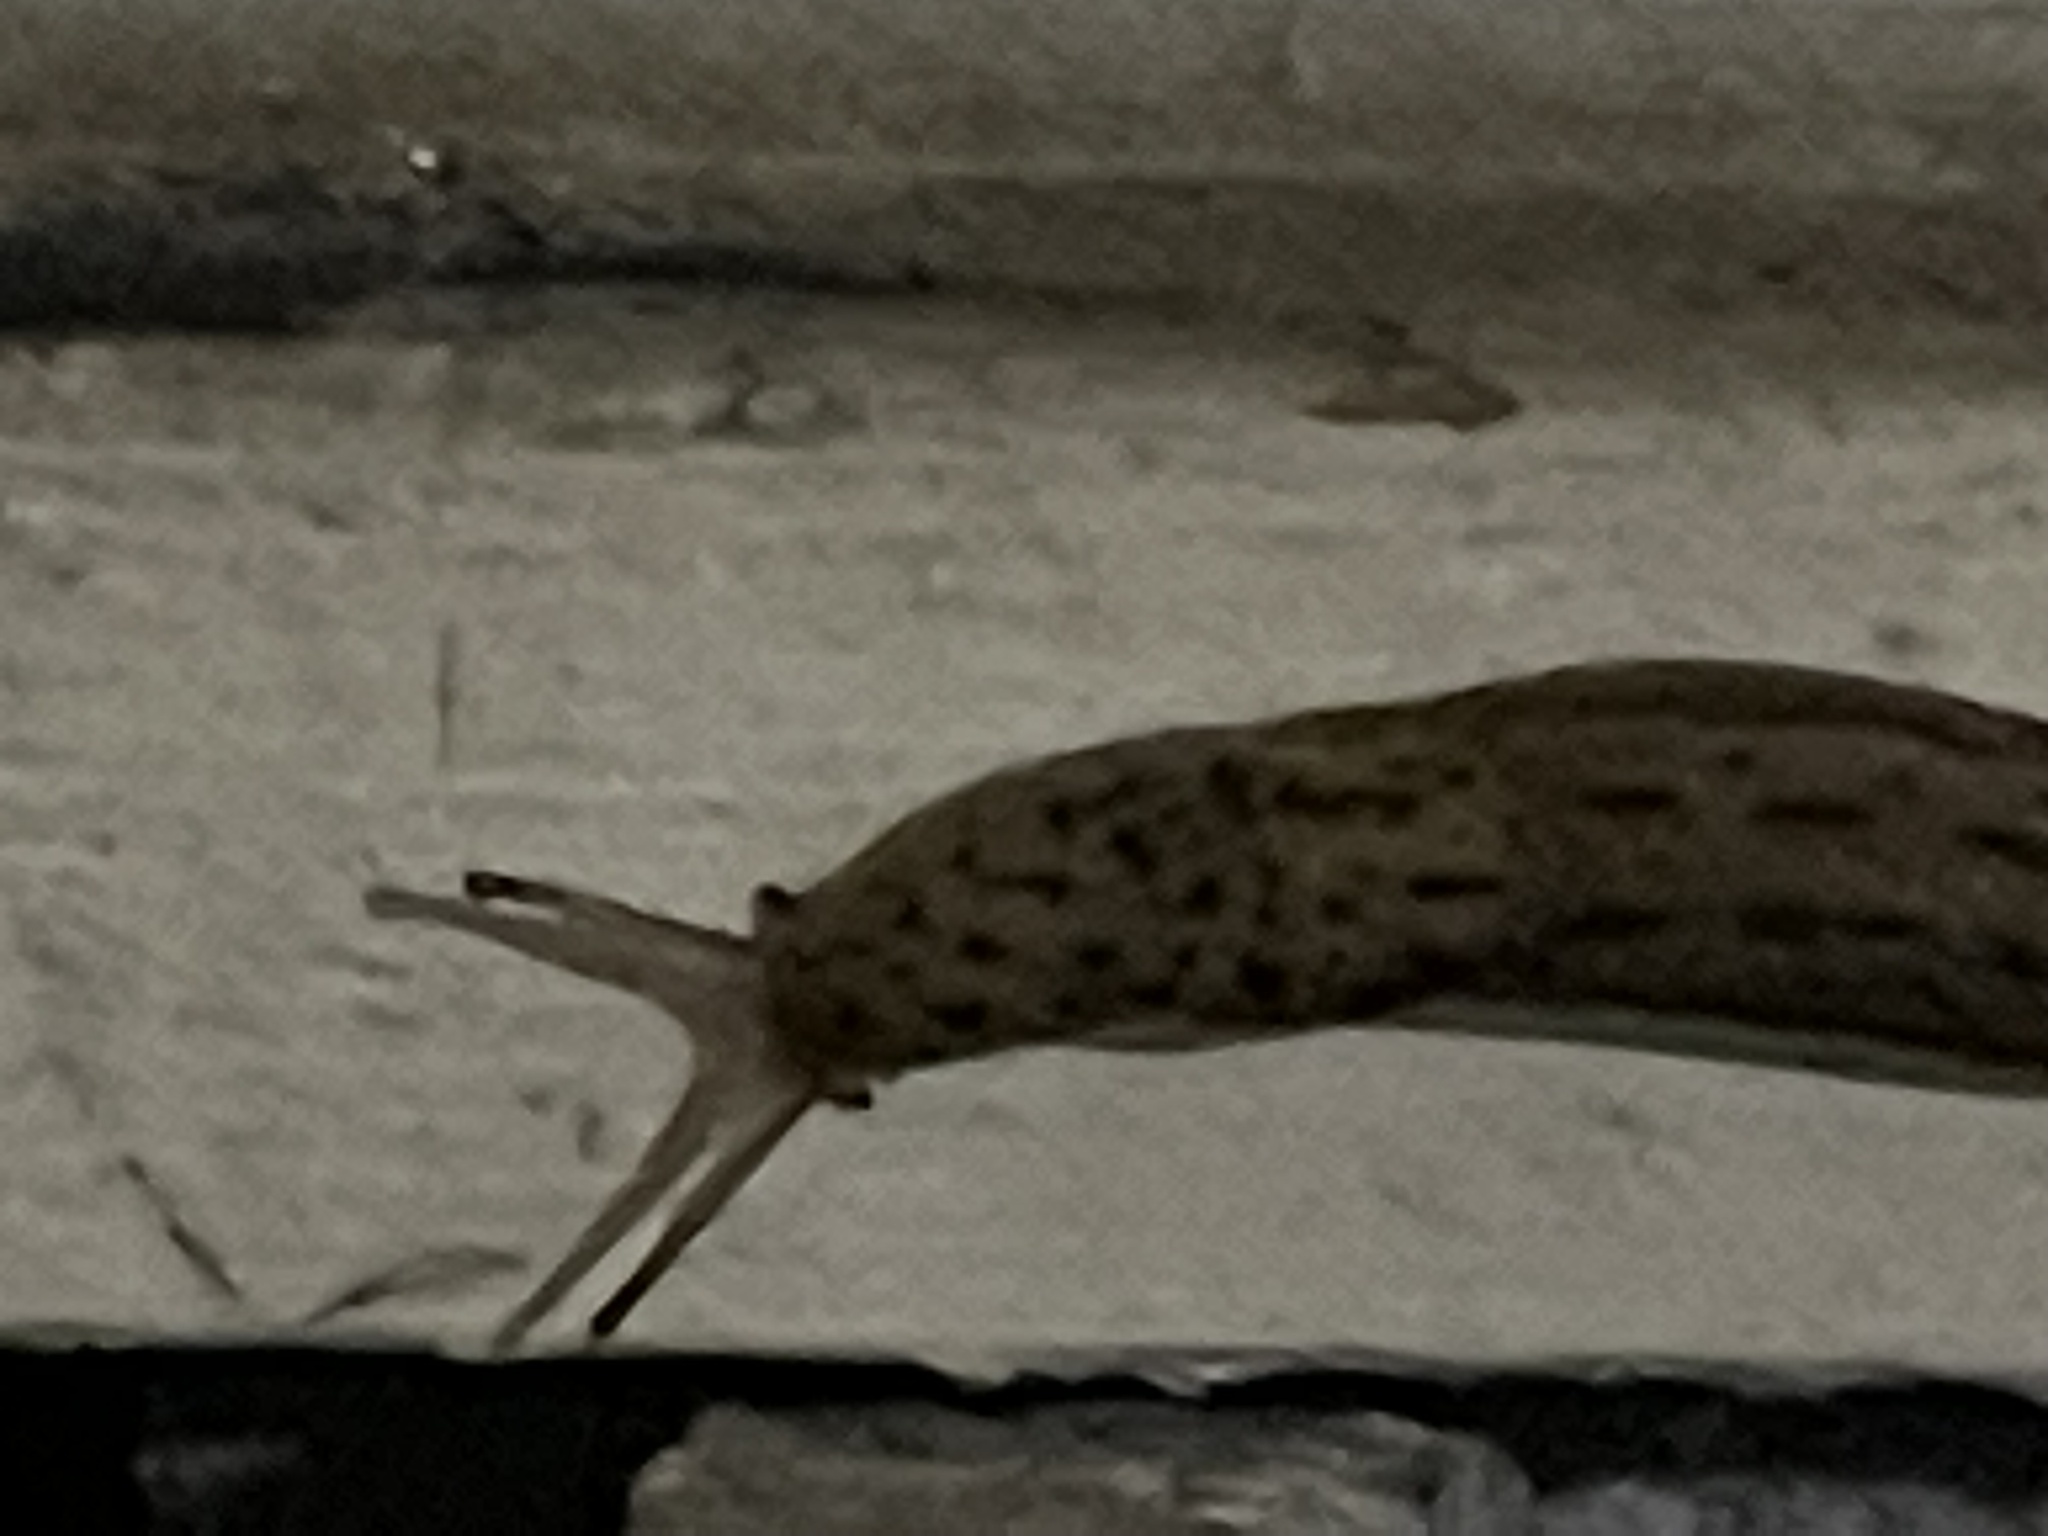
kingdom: Animalia
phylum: Mollusca
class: Gastropoda
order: Stylommatophora
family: Limacidae
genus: Limax
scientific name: Limax maximus
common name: Great grey slug
